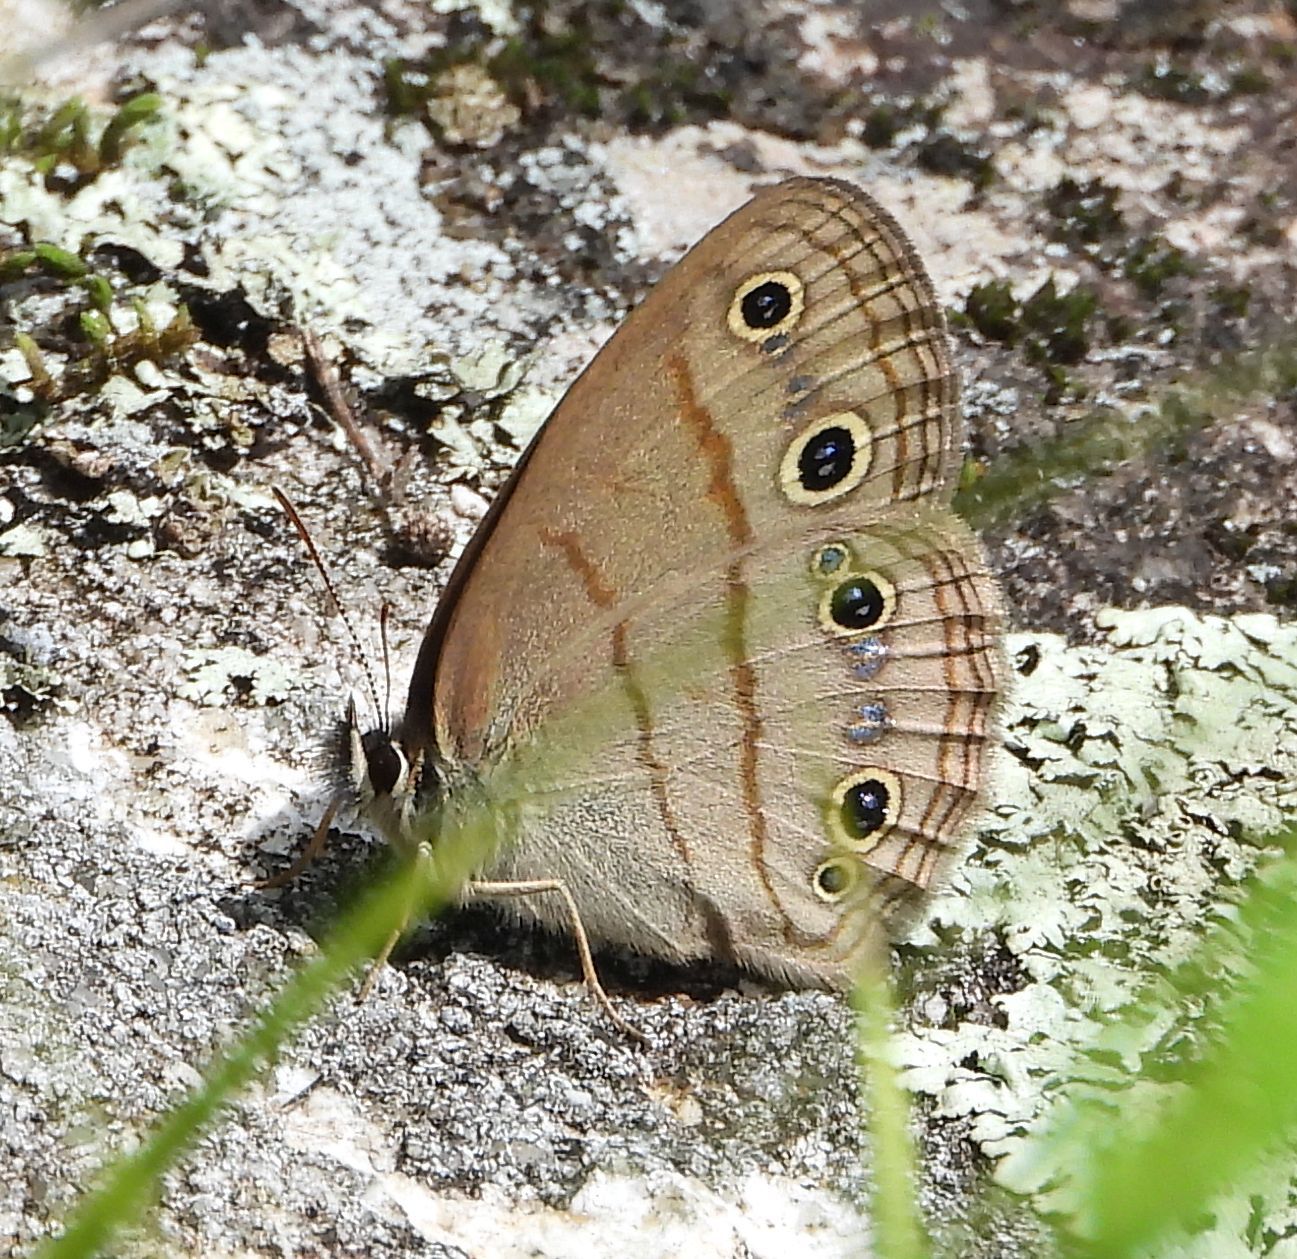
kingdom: Animalia
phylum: Arthropoda
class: Insecta
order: Lepidoptera
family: Nymphalidae
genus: Euptychia
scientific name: Euptychia cymela
